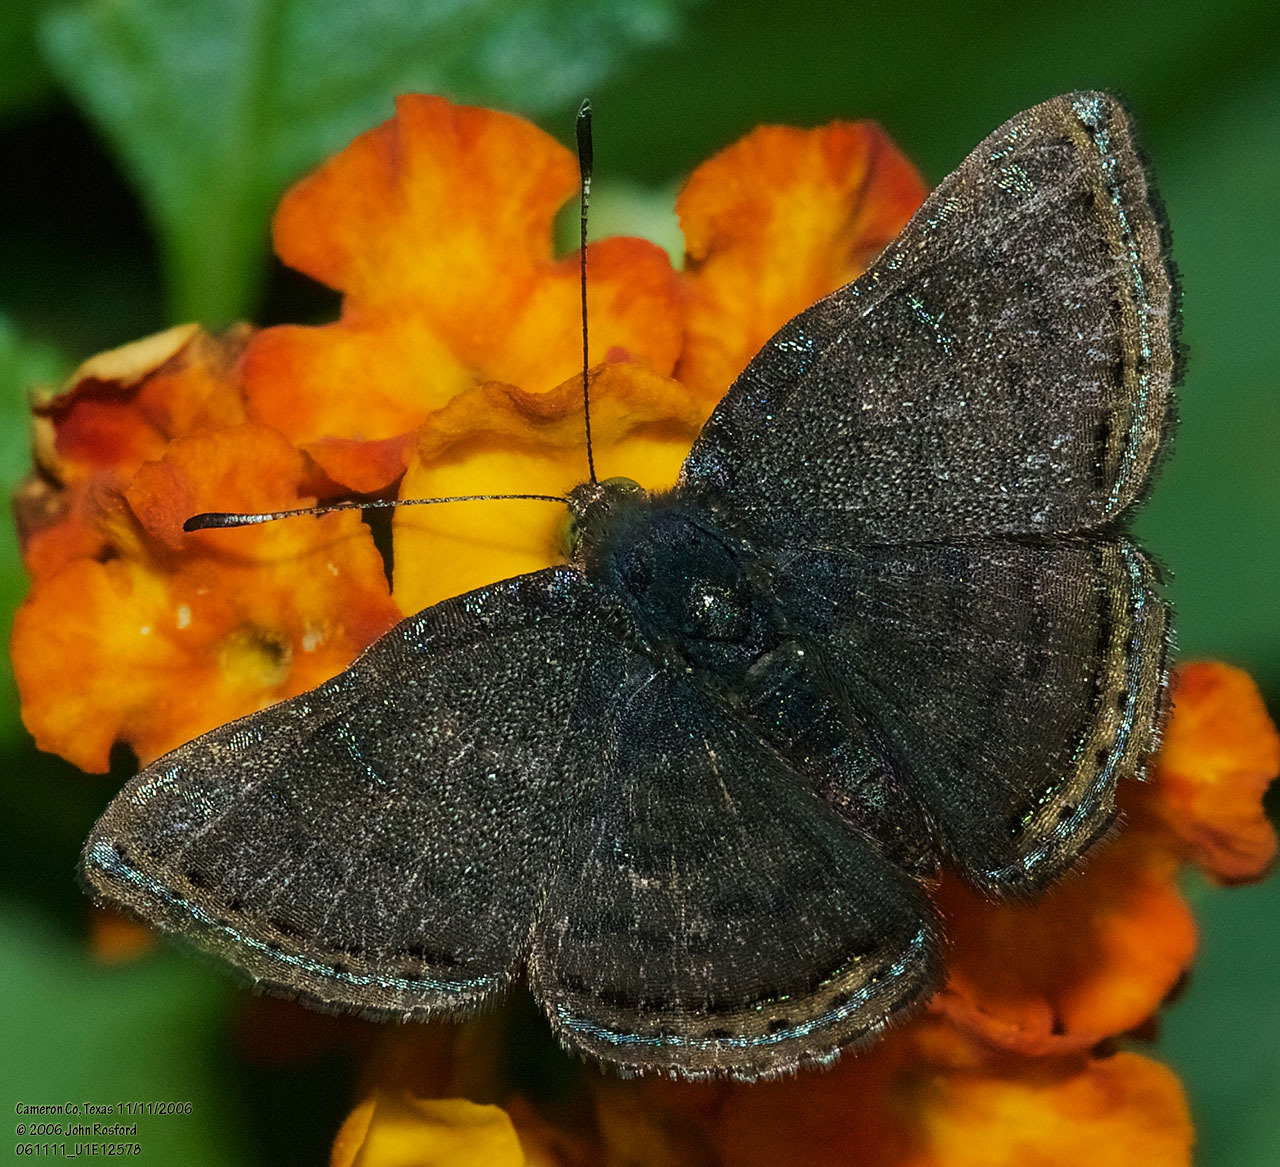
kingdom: Animalia
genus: Caria
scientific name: Caria ino
